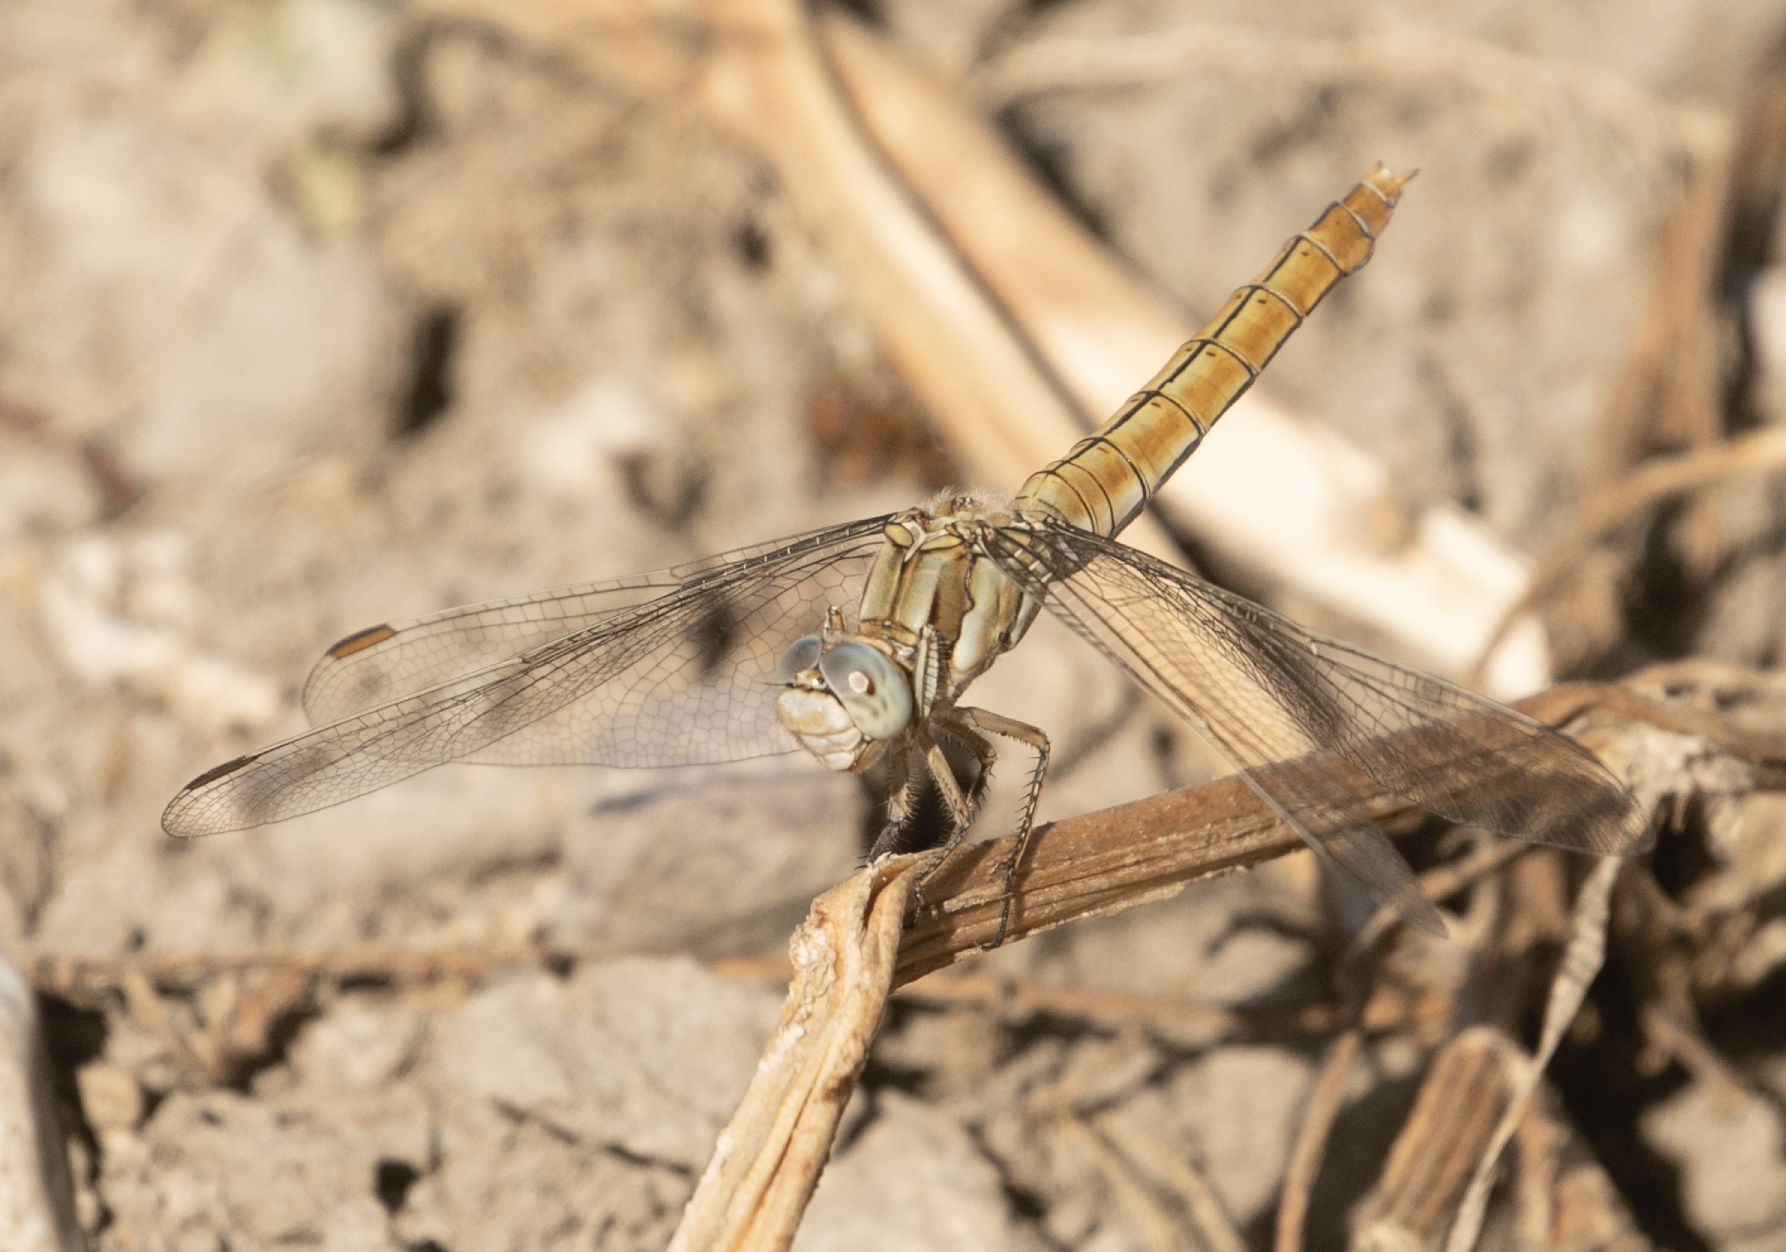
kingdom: Animalia
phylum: Arthropoda
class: Insecta
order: Odonata
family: Libellulidae
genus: Orthetrum
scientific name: Orthetrum brunneum
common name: Southern skimmer
